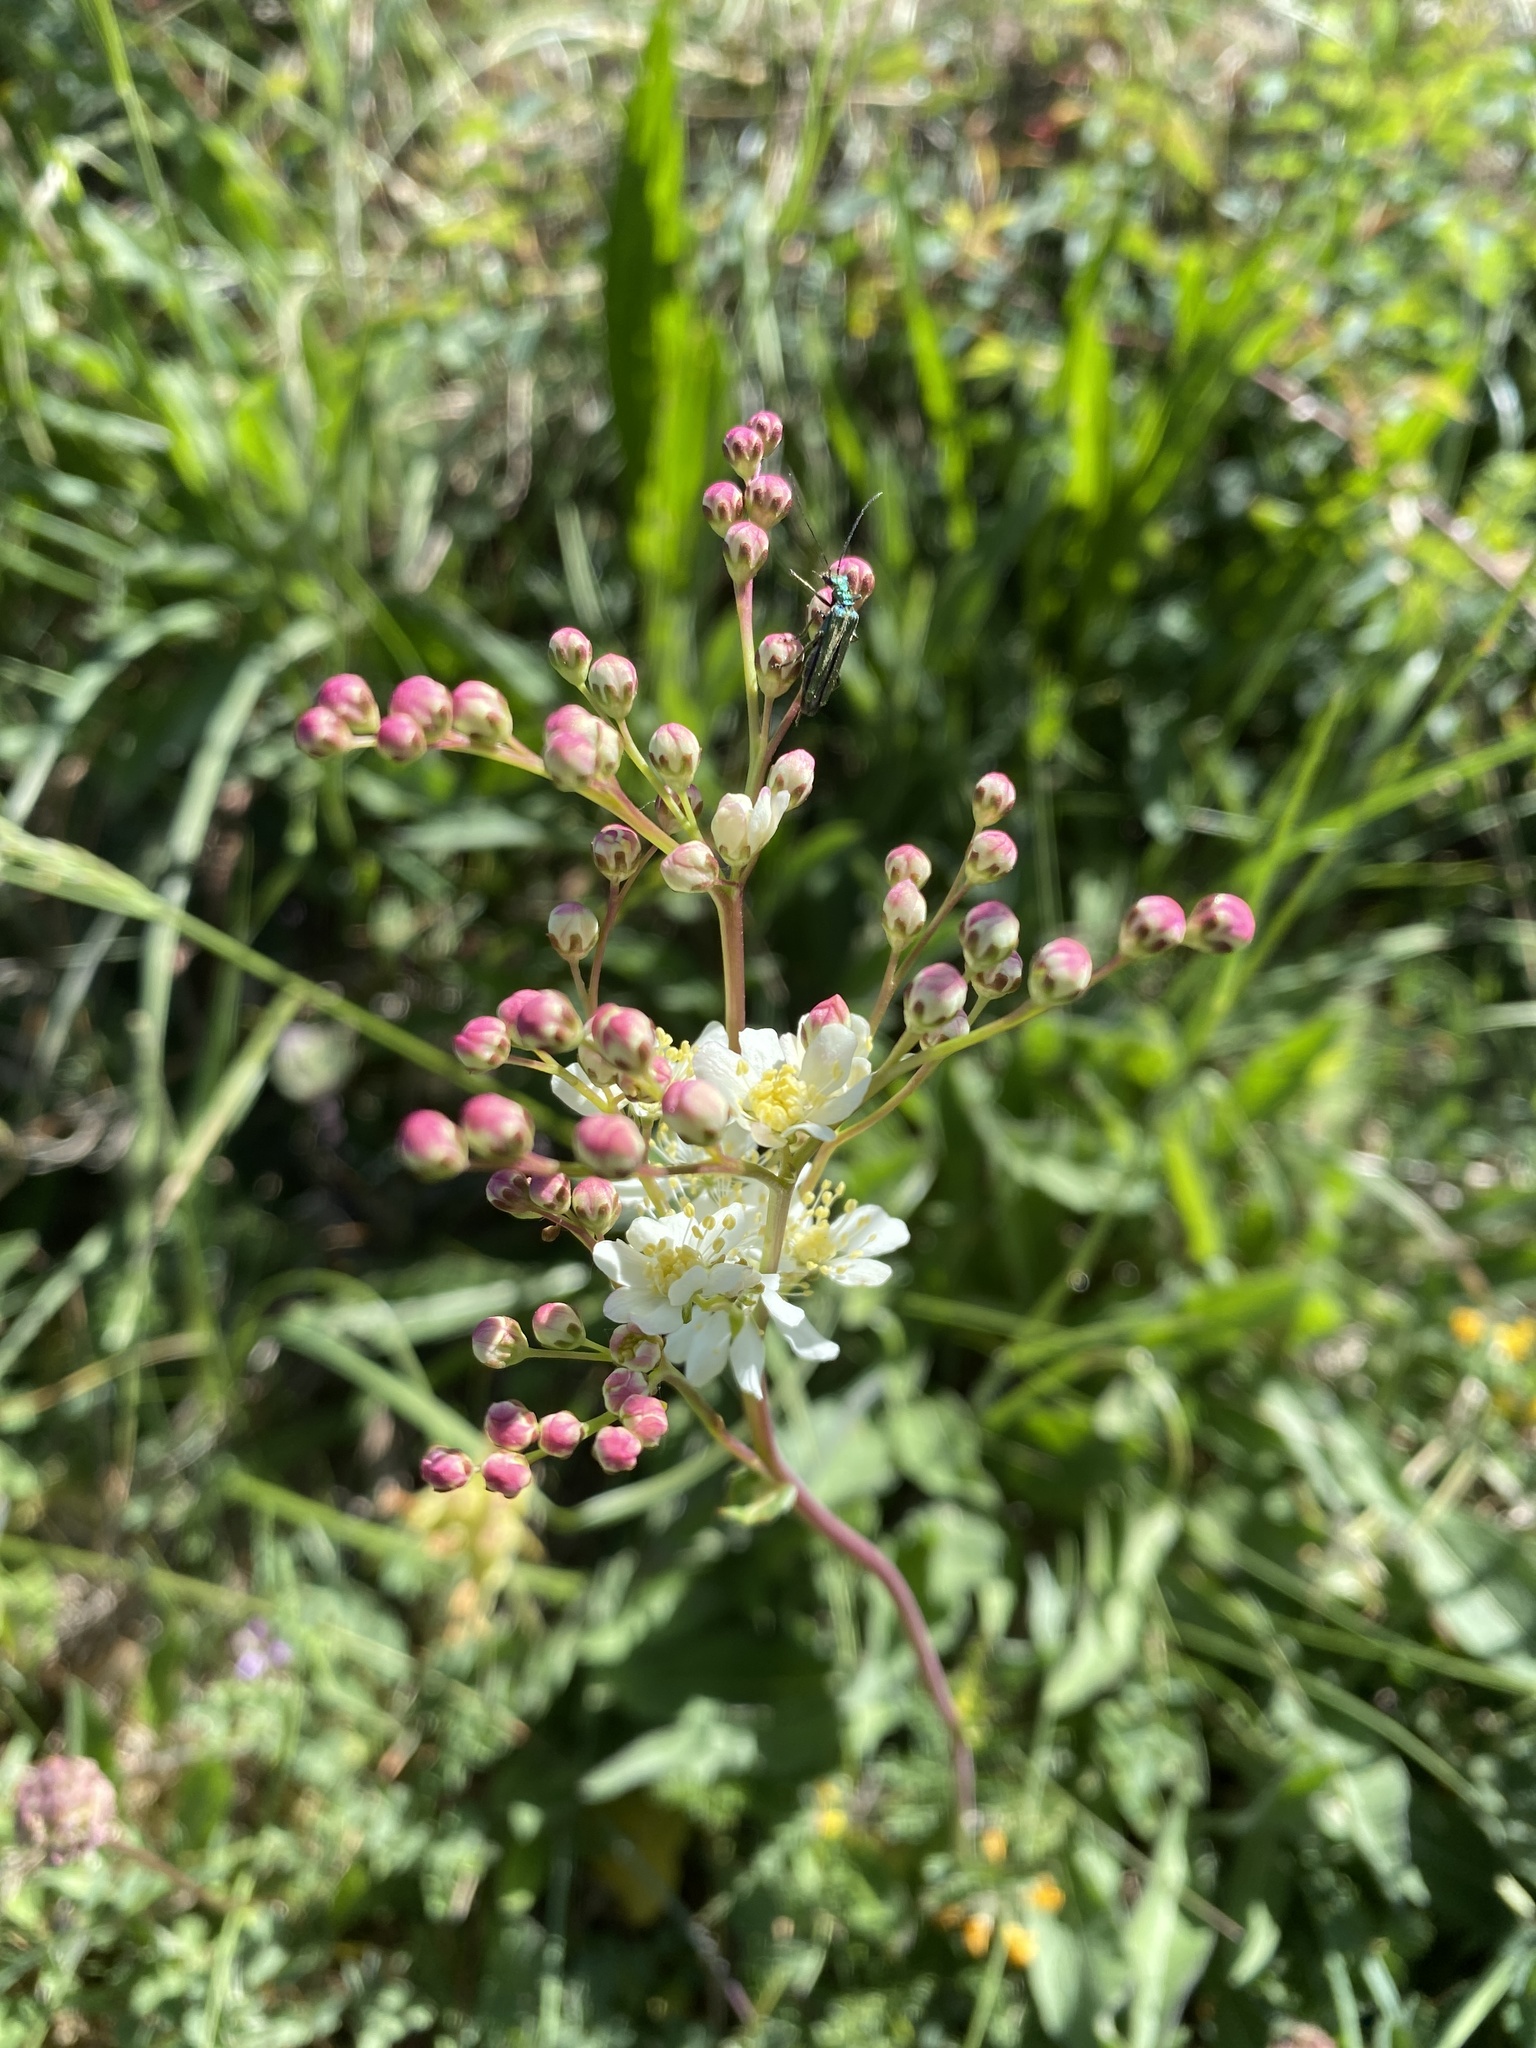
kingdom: Plantae
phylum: Tracheophyta
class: Magnoliopsida
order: Rosales
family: Rosaceae
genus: Filipendula
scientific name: Filipendula vulgaris
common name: Dropwort
